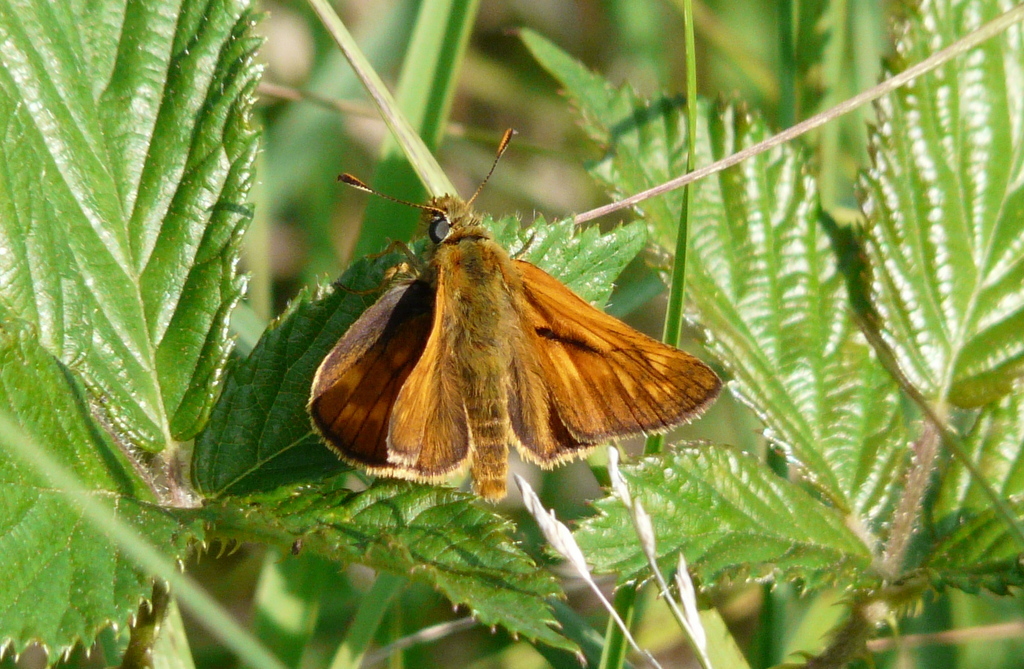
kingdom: Animalia
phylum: Arthropoda
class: Insecta
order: Lepidoptera
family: Hesperiidae
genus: Ochlodes
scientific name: Ochlodes venata
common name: Large skipper
